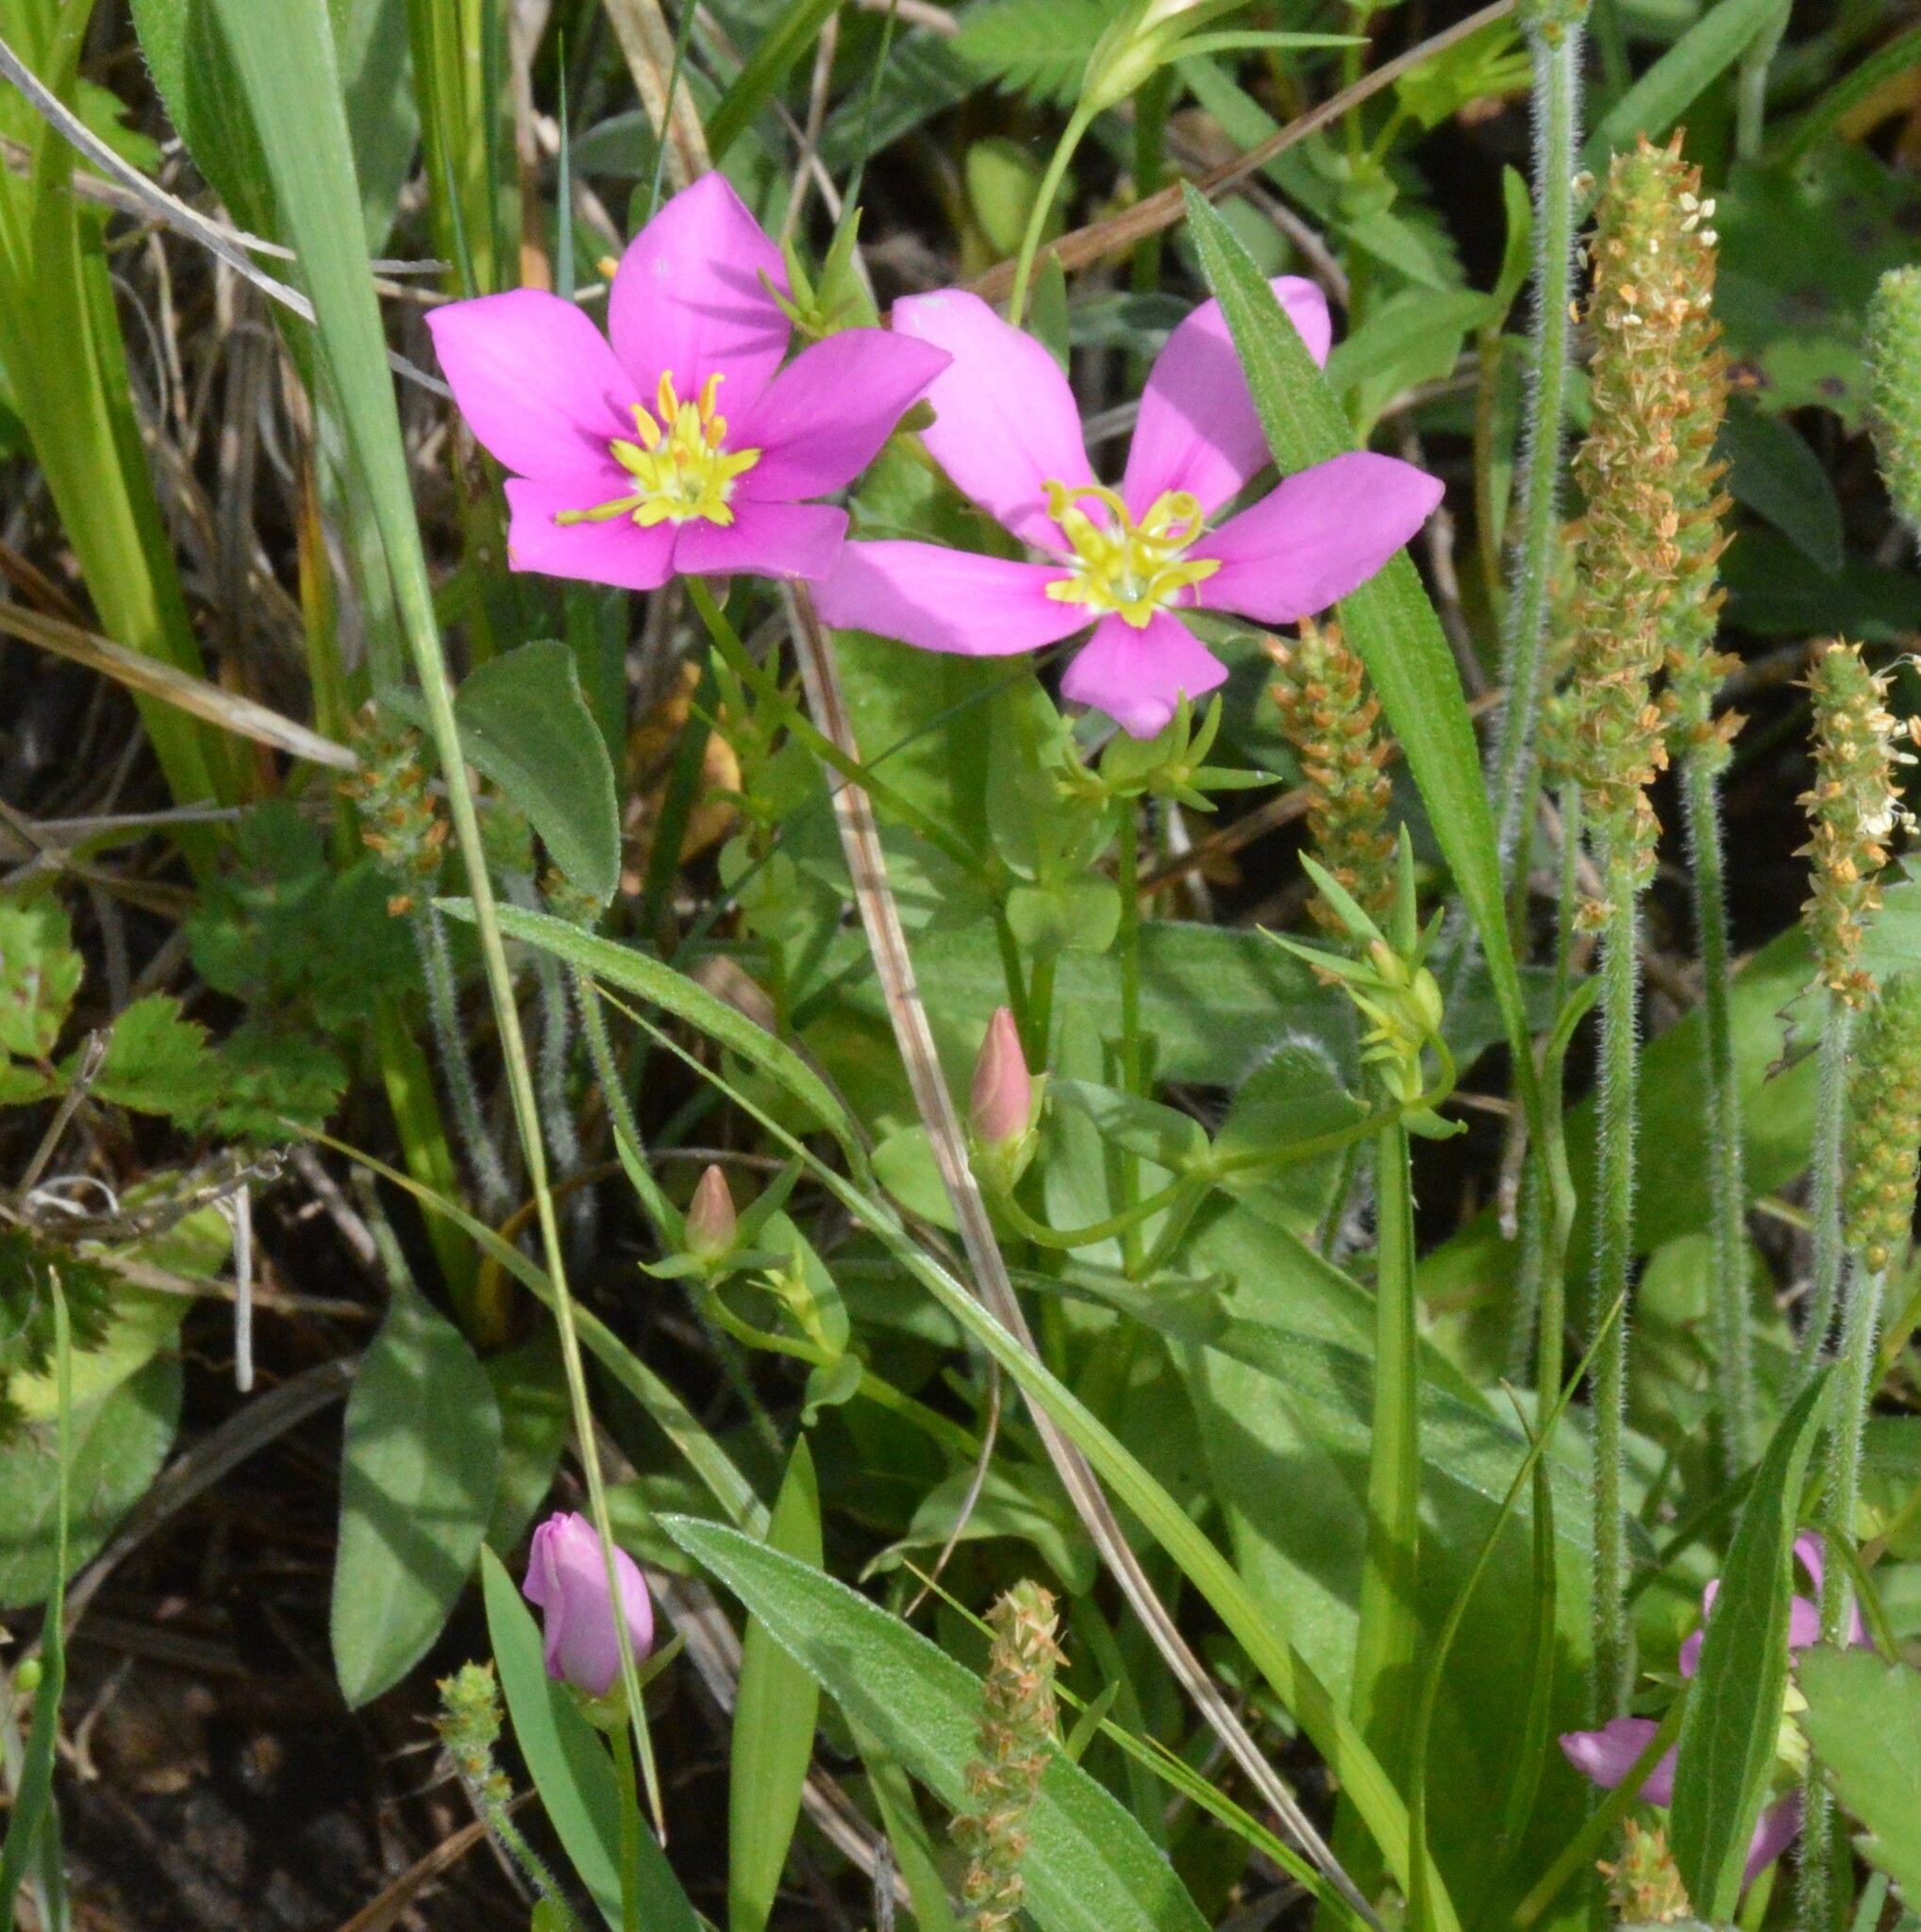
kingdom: Plantae
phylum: Tracheophyta
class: Magnoliopsida
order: Gentianales
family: Gentianaceae
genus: Sabatia
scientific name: Sabatia campestris
